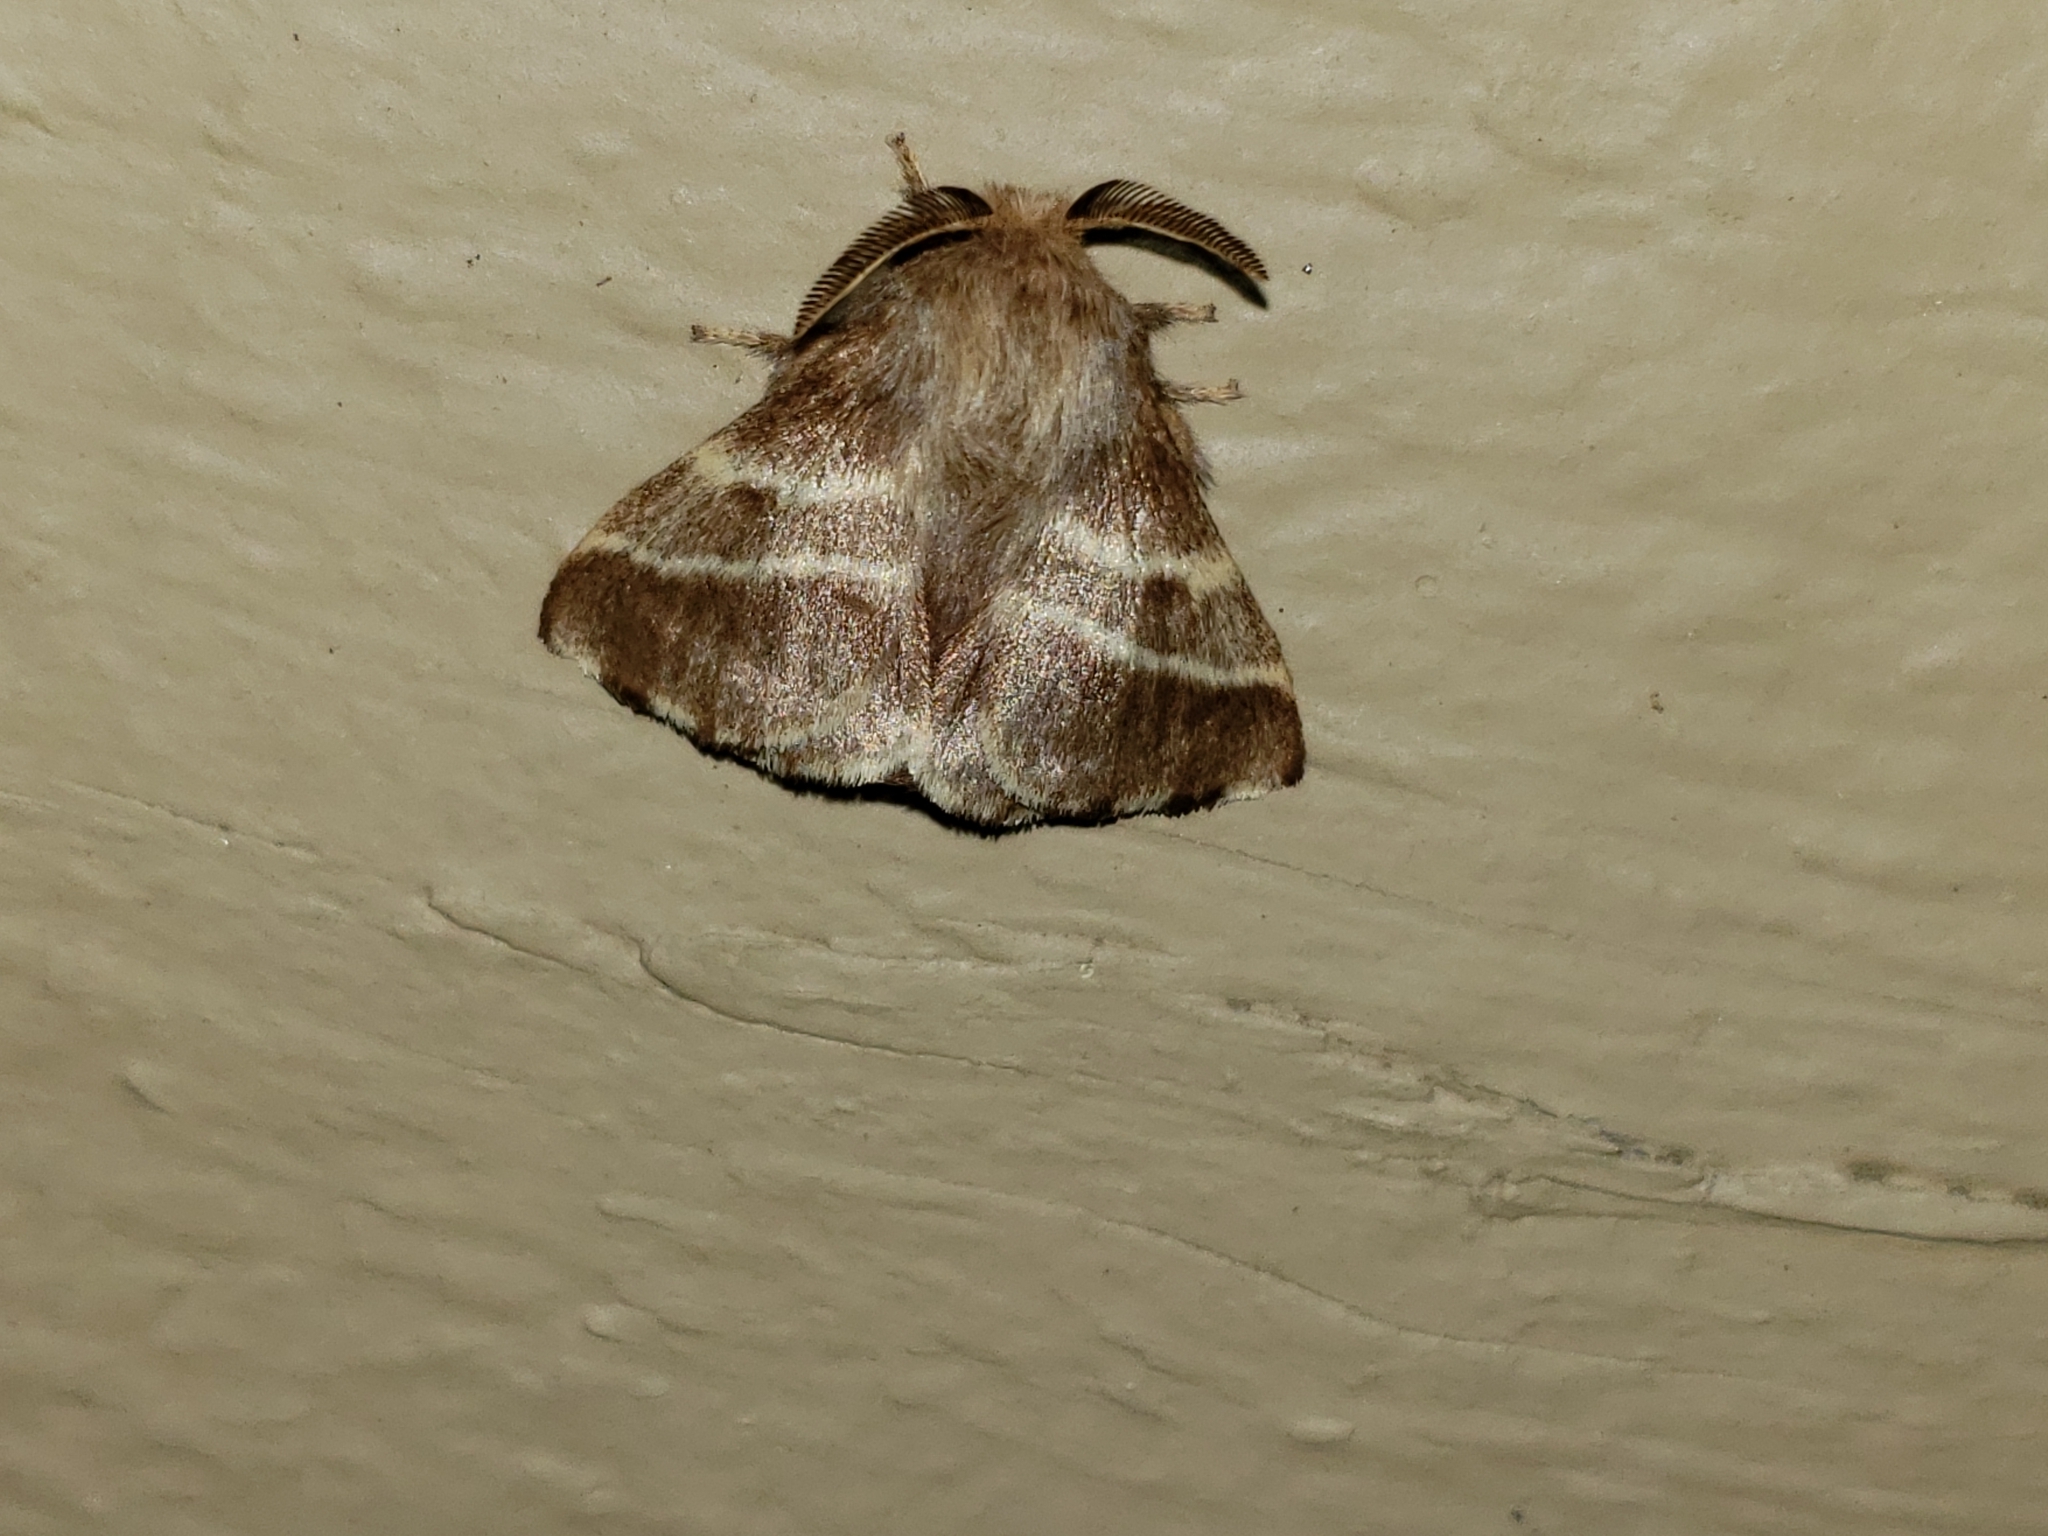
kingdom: Animalia
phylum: Arthropoda
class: Insecta
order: Lepidoptera
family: Lasiocampidae
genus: Malacosoma
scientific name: Malacosoma americana
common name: Eastern tent caterpillar moth
